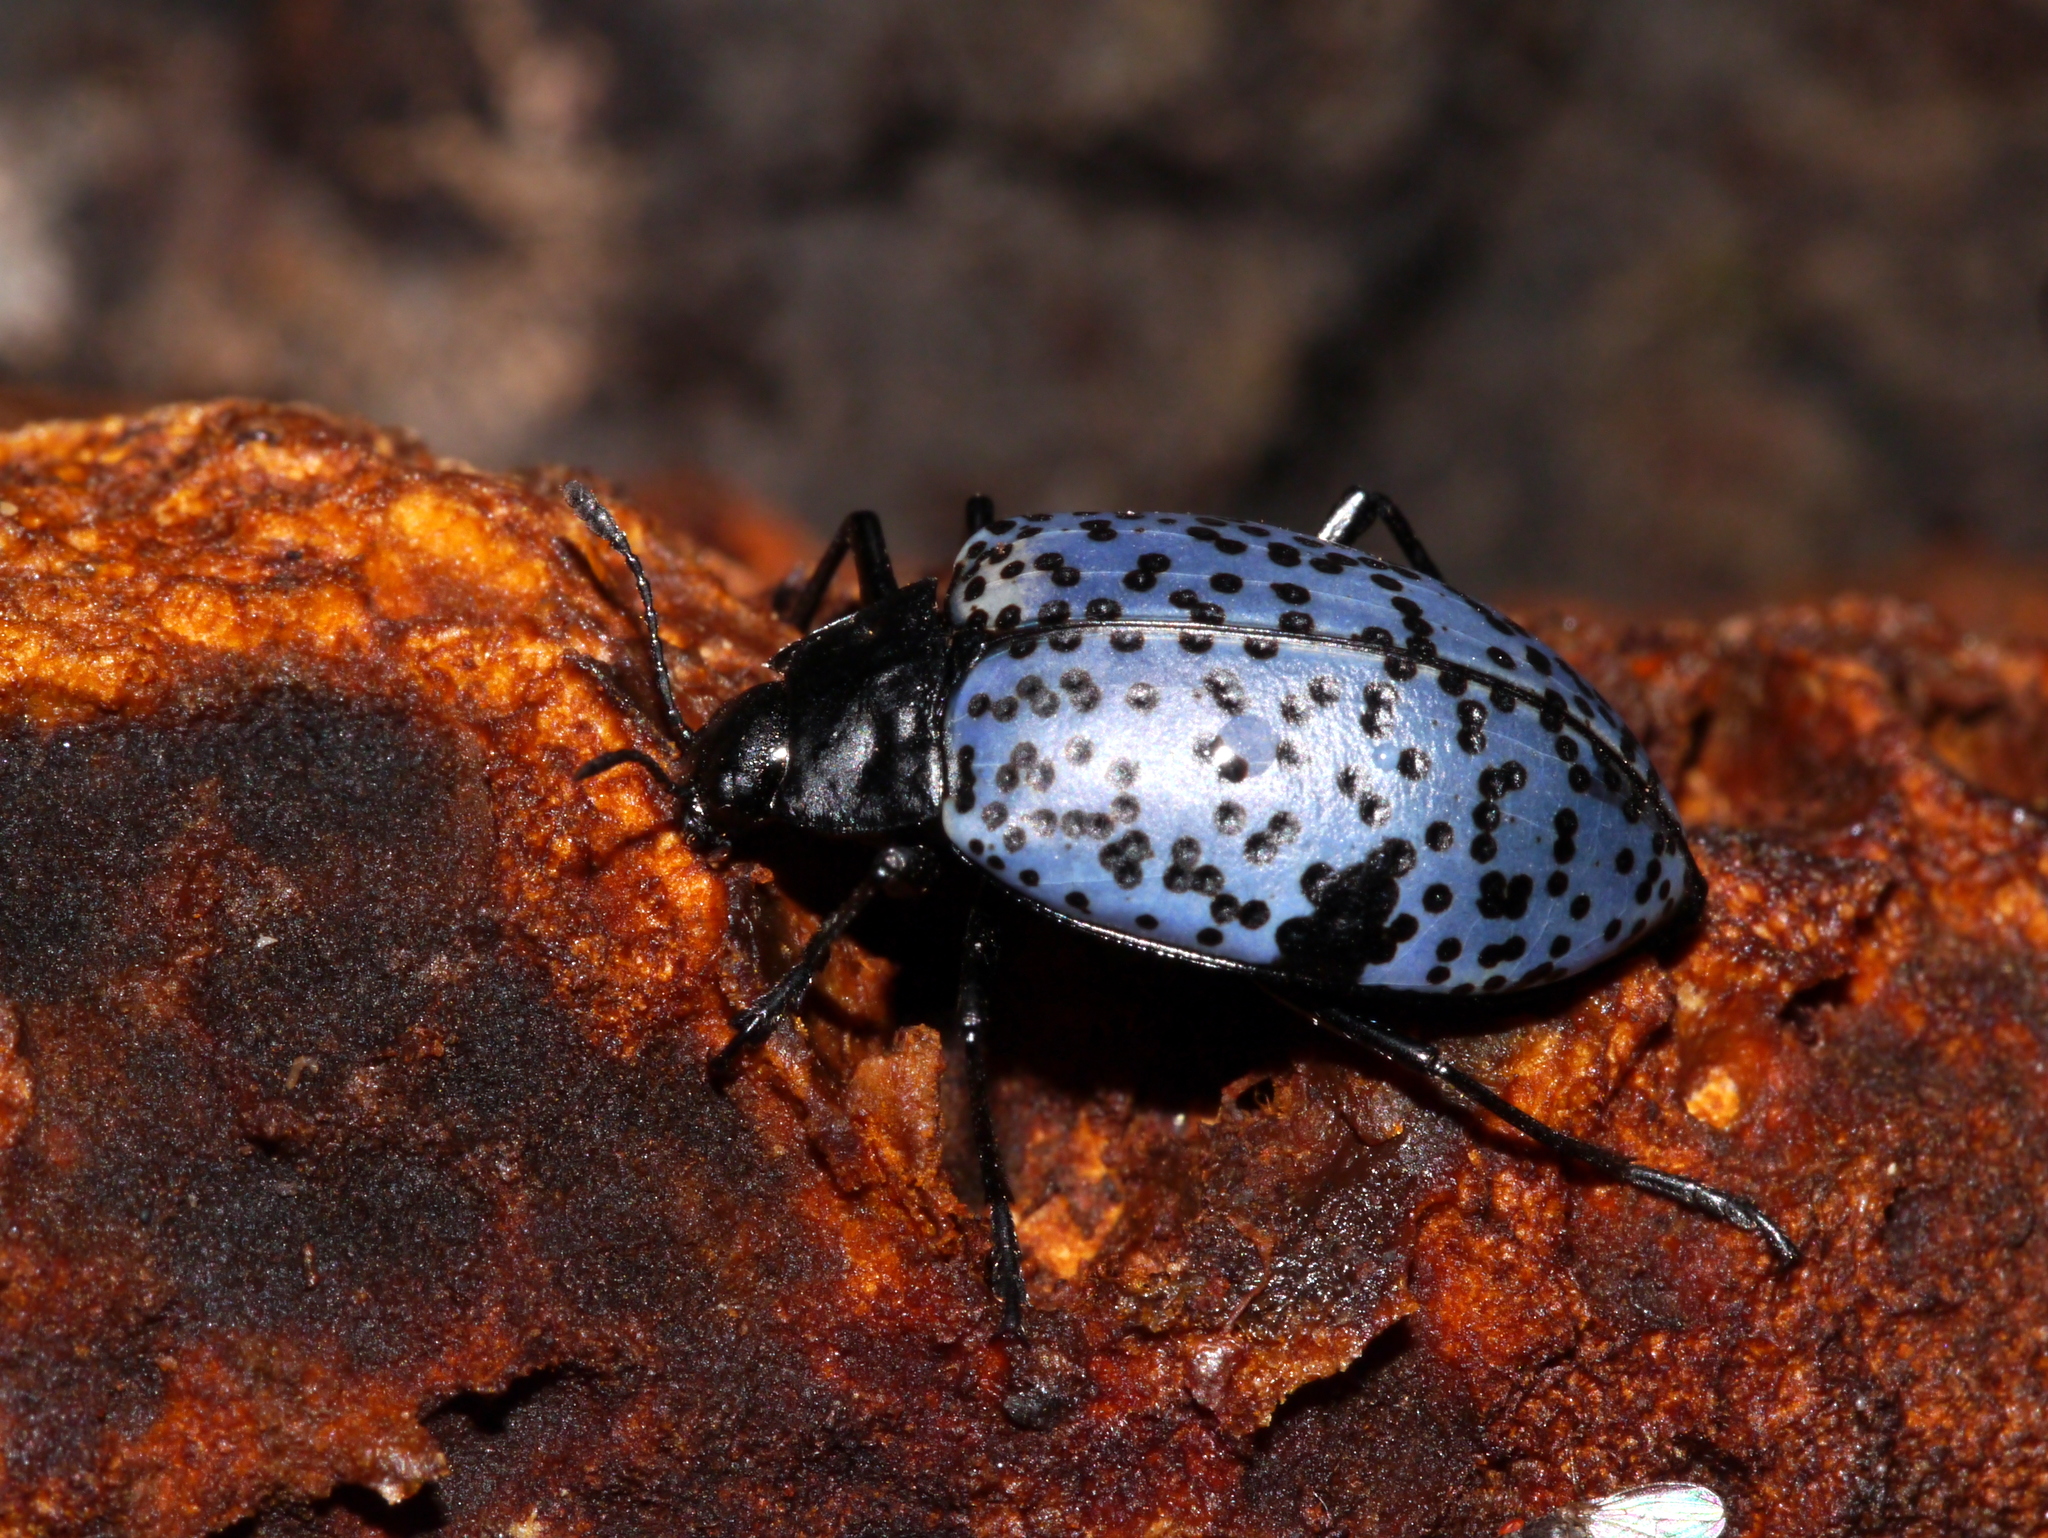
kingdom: Animalia
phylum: Arthropoda
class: Insecta
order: Coleoptera
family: Erotylidae
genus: Gibbifer
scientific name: Gibbifer californicus
